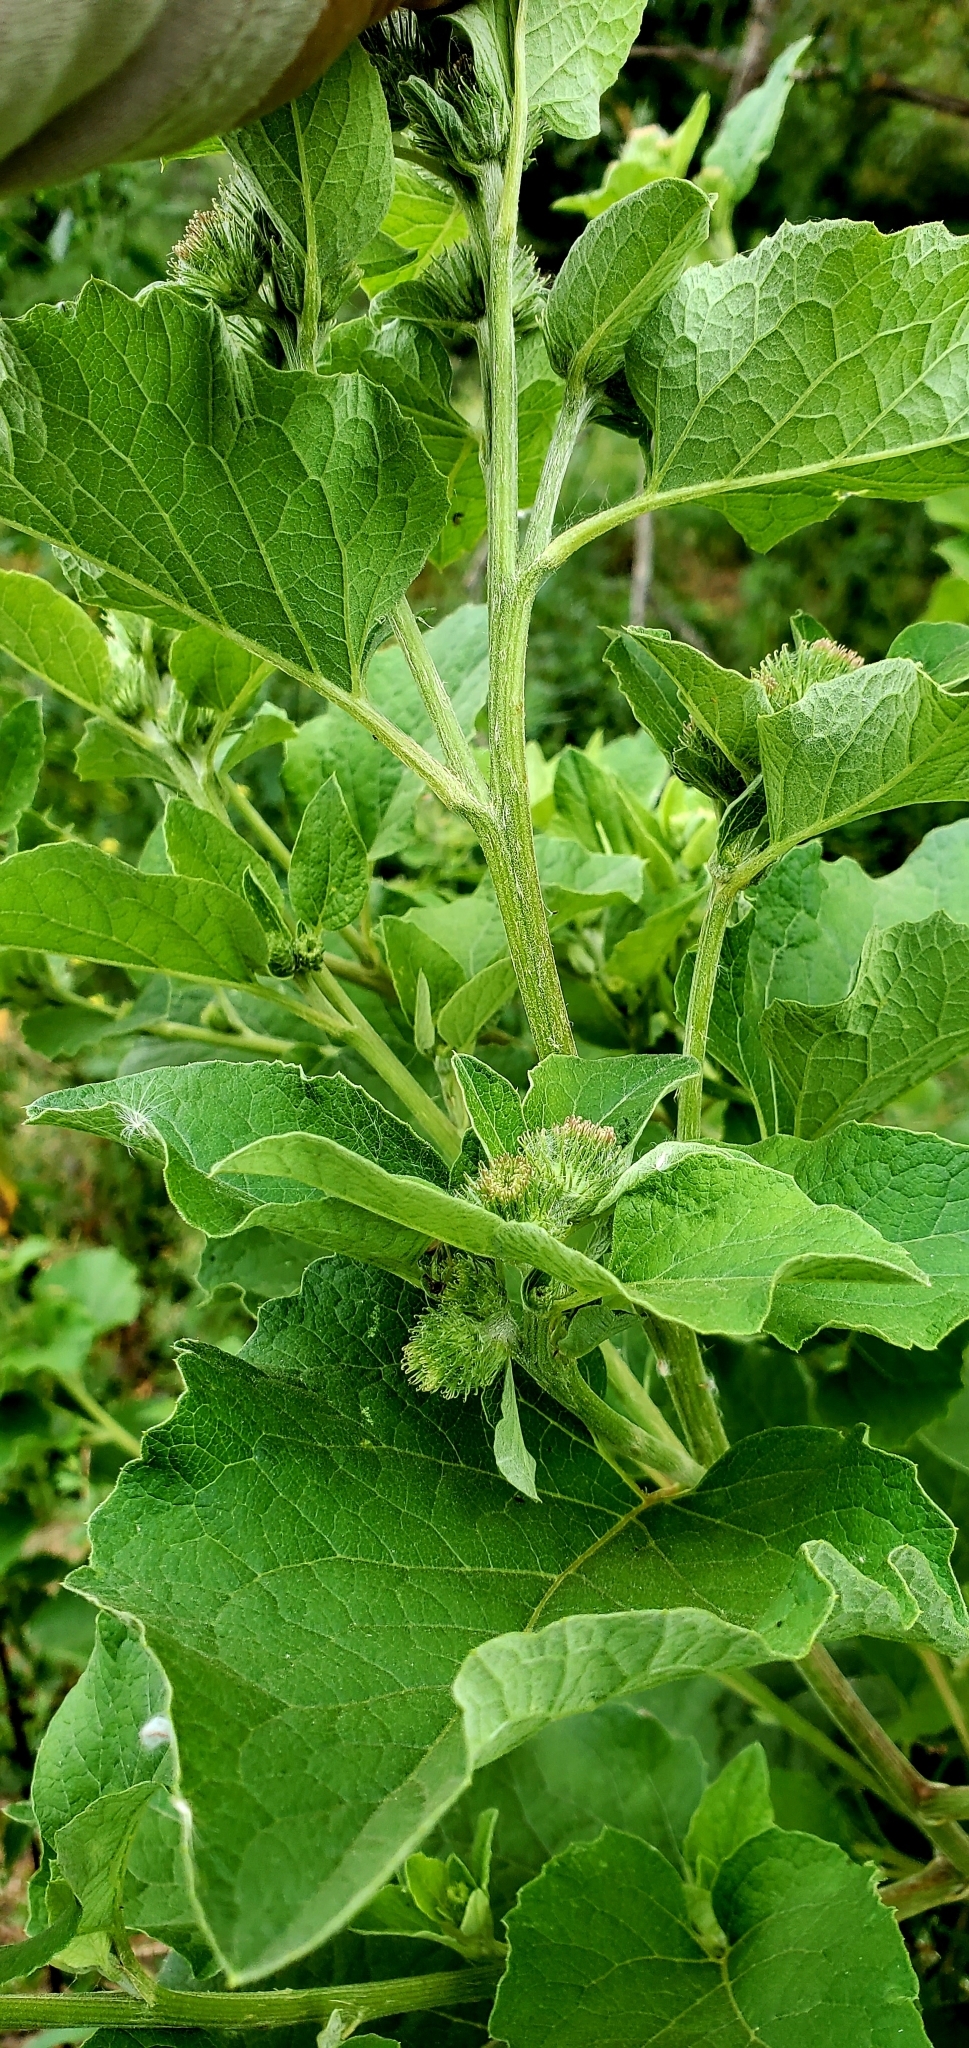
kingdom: Plantae
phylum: Tracheophyta
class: Magnoliopsida
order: Asterales
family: Asteraceae
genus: Arctium
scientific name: Arctium lappa
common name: Greater burdock
